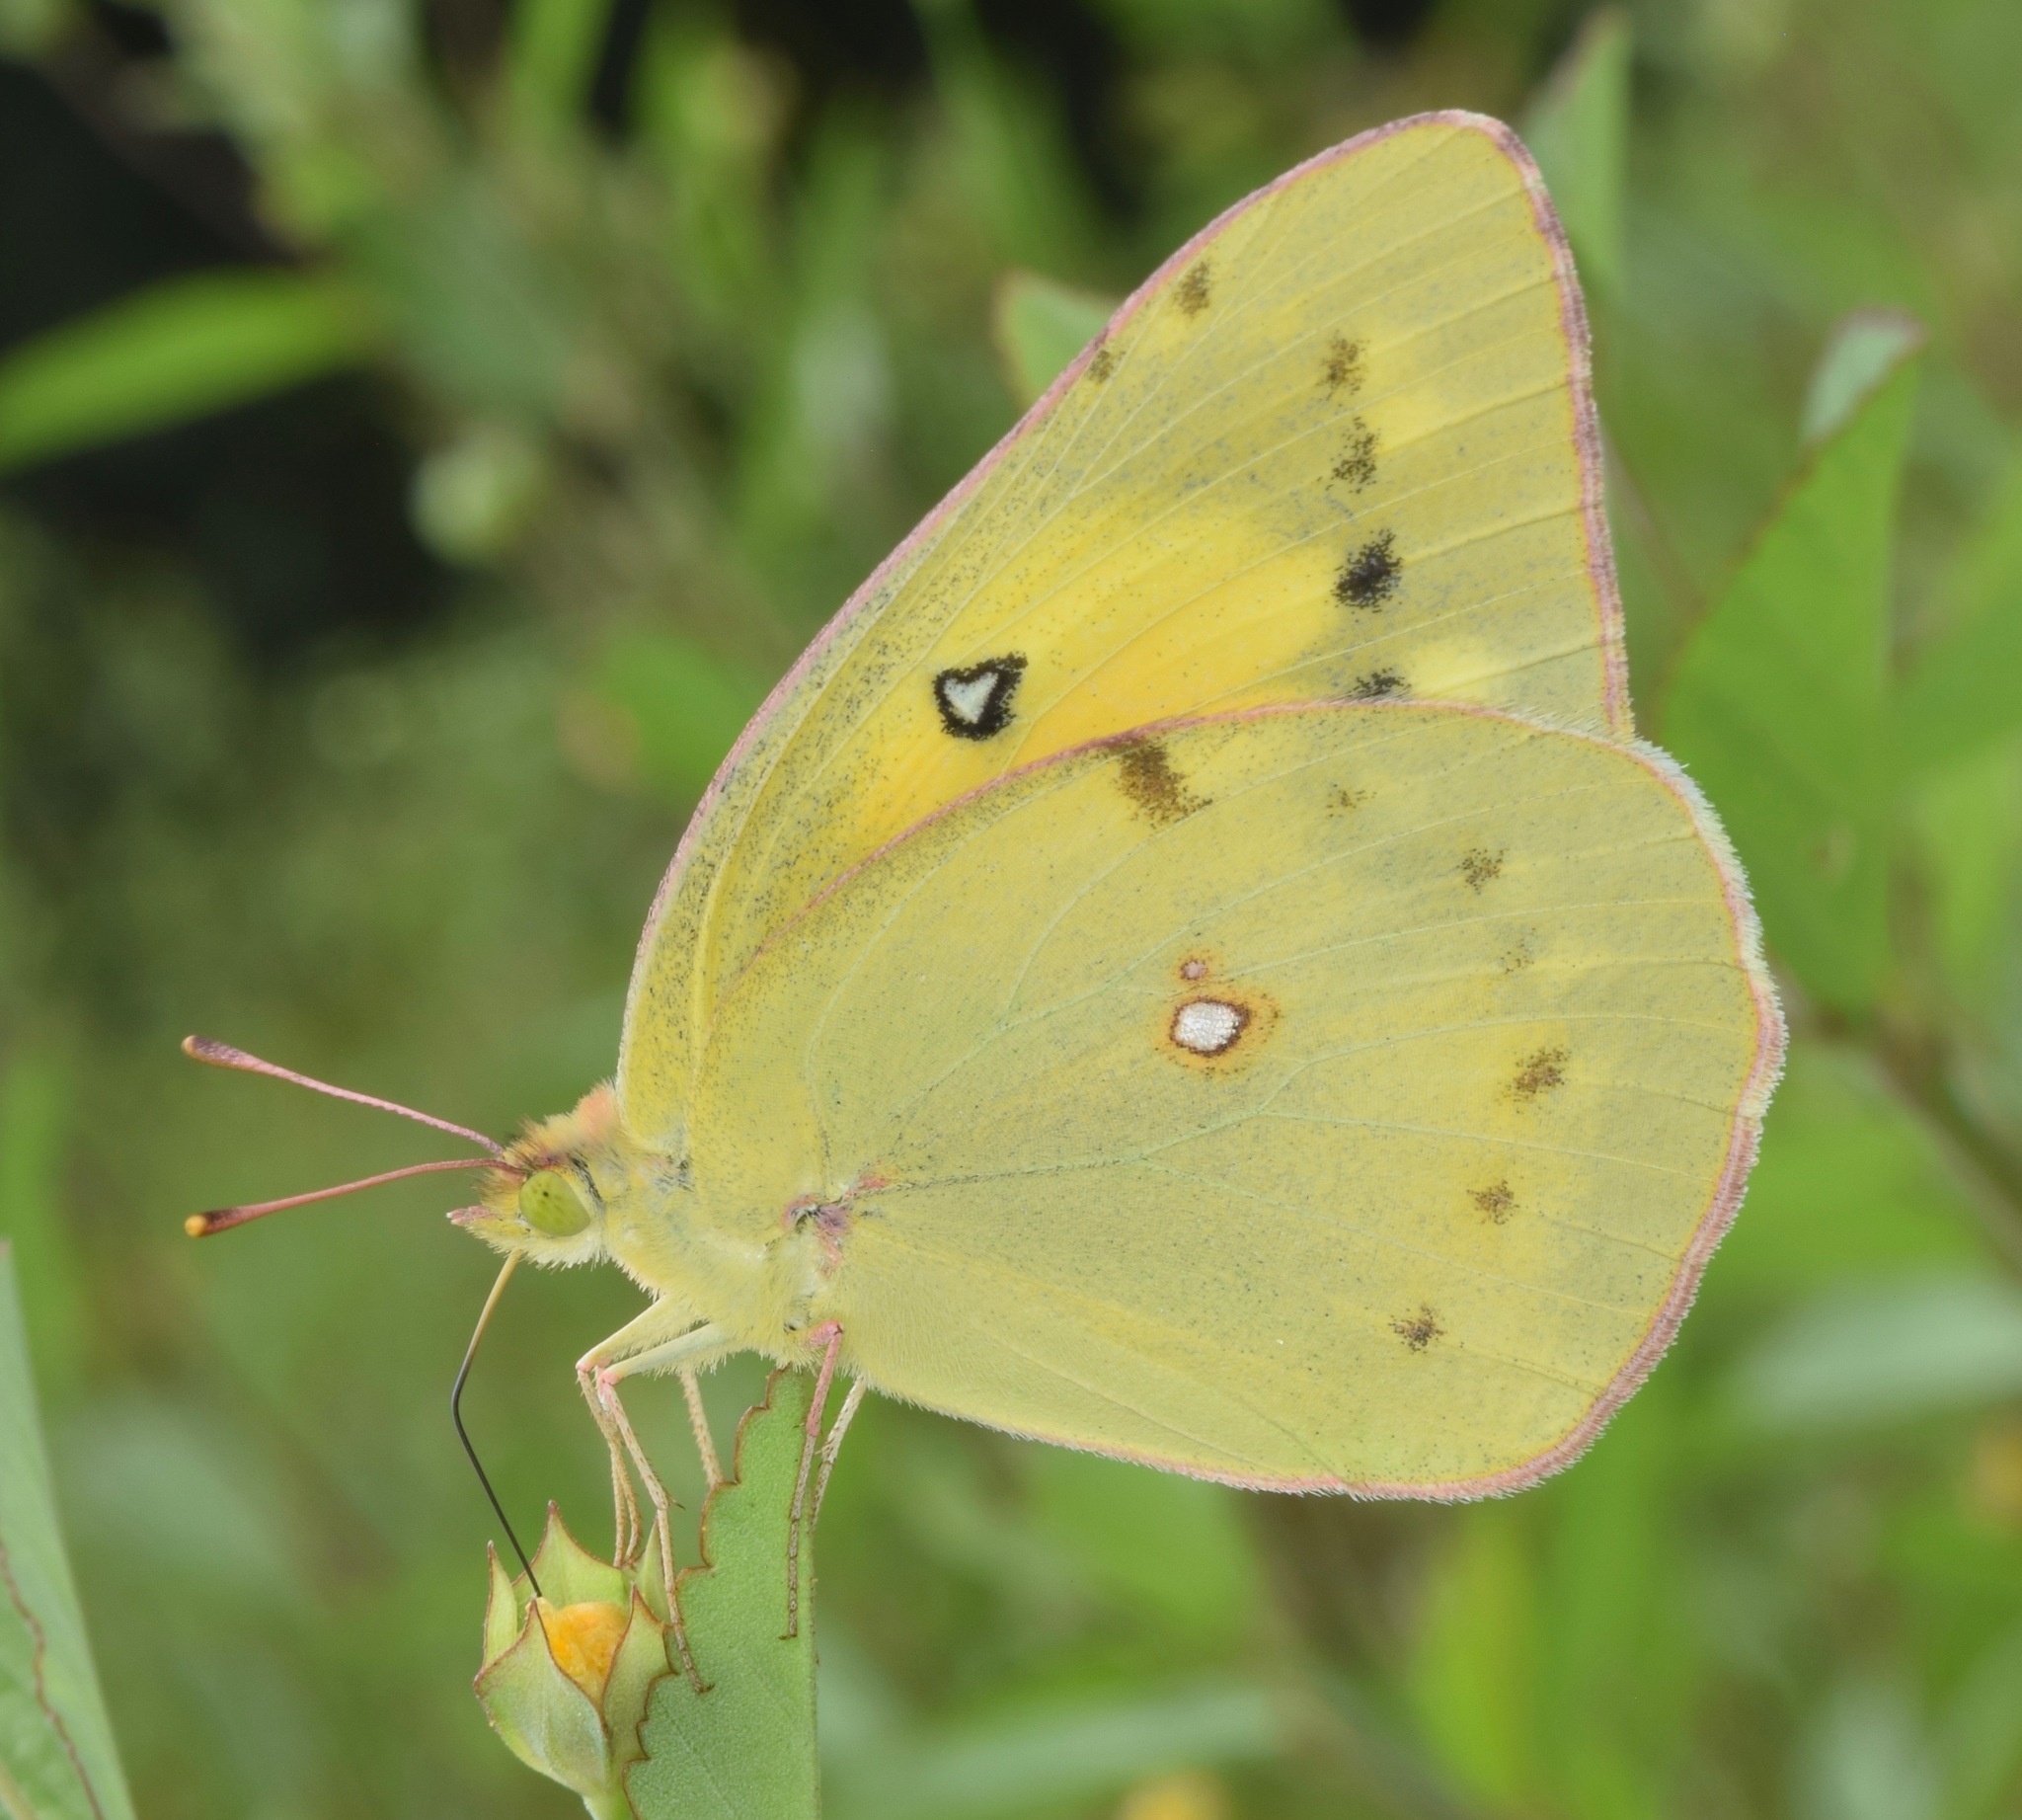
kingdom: Animalia
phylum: Arthropoda
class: Insecta
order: Lepidoptera
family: Pieridae
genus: Colias
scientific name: Colias eurytheme
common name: Alfalfa butterfly
